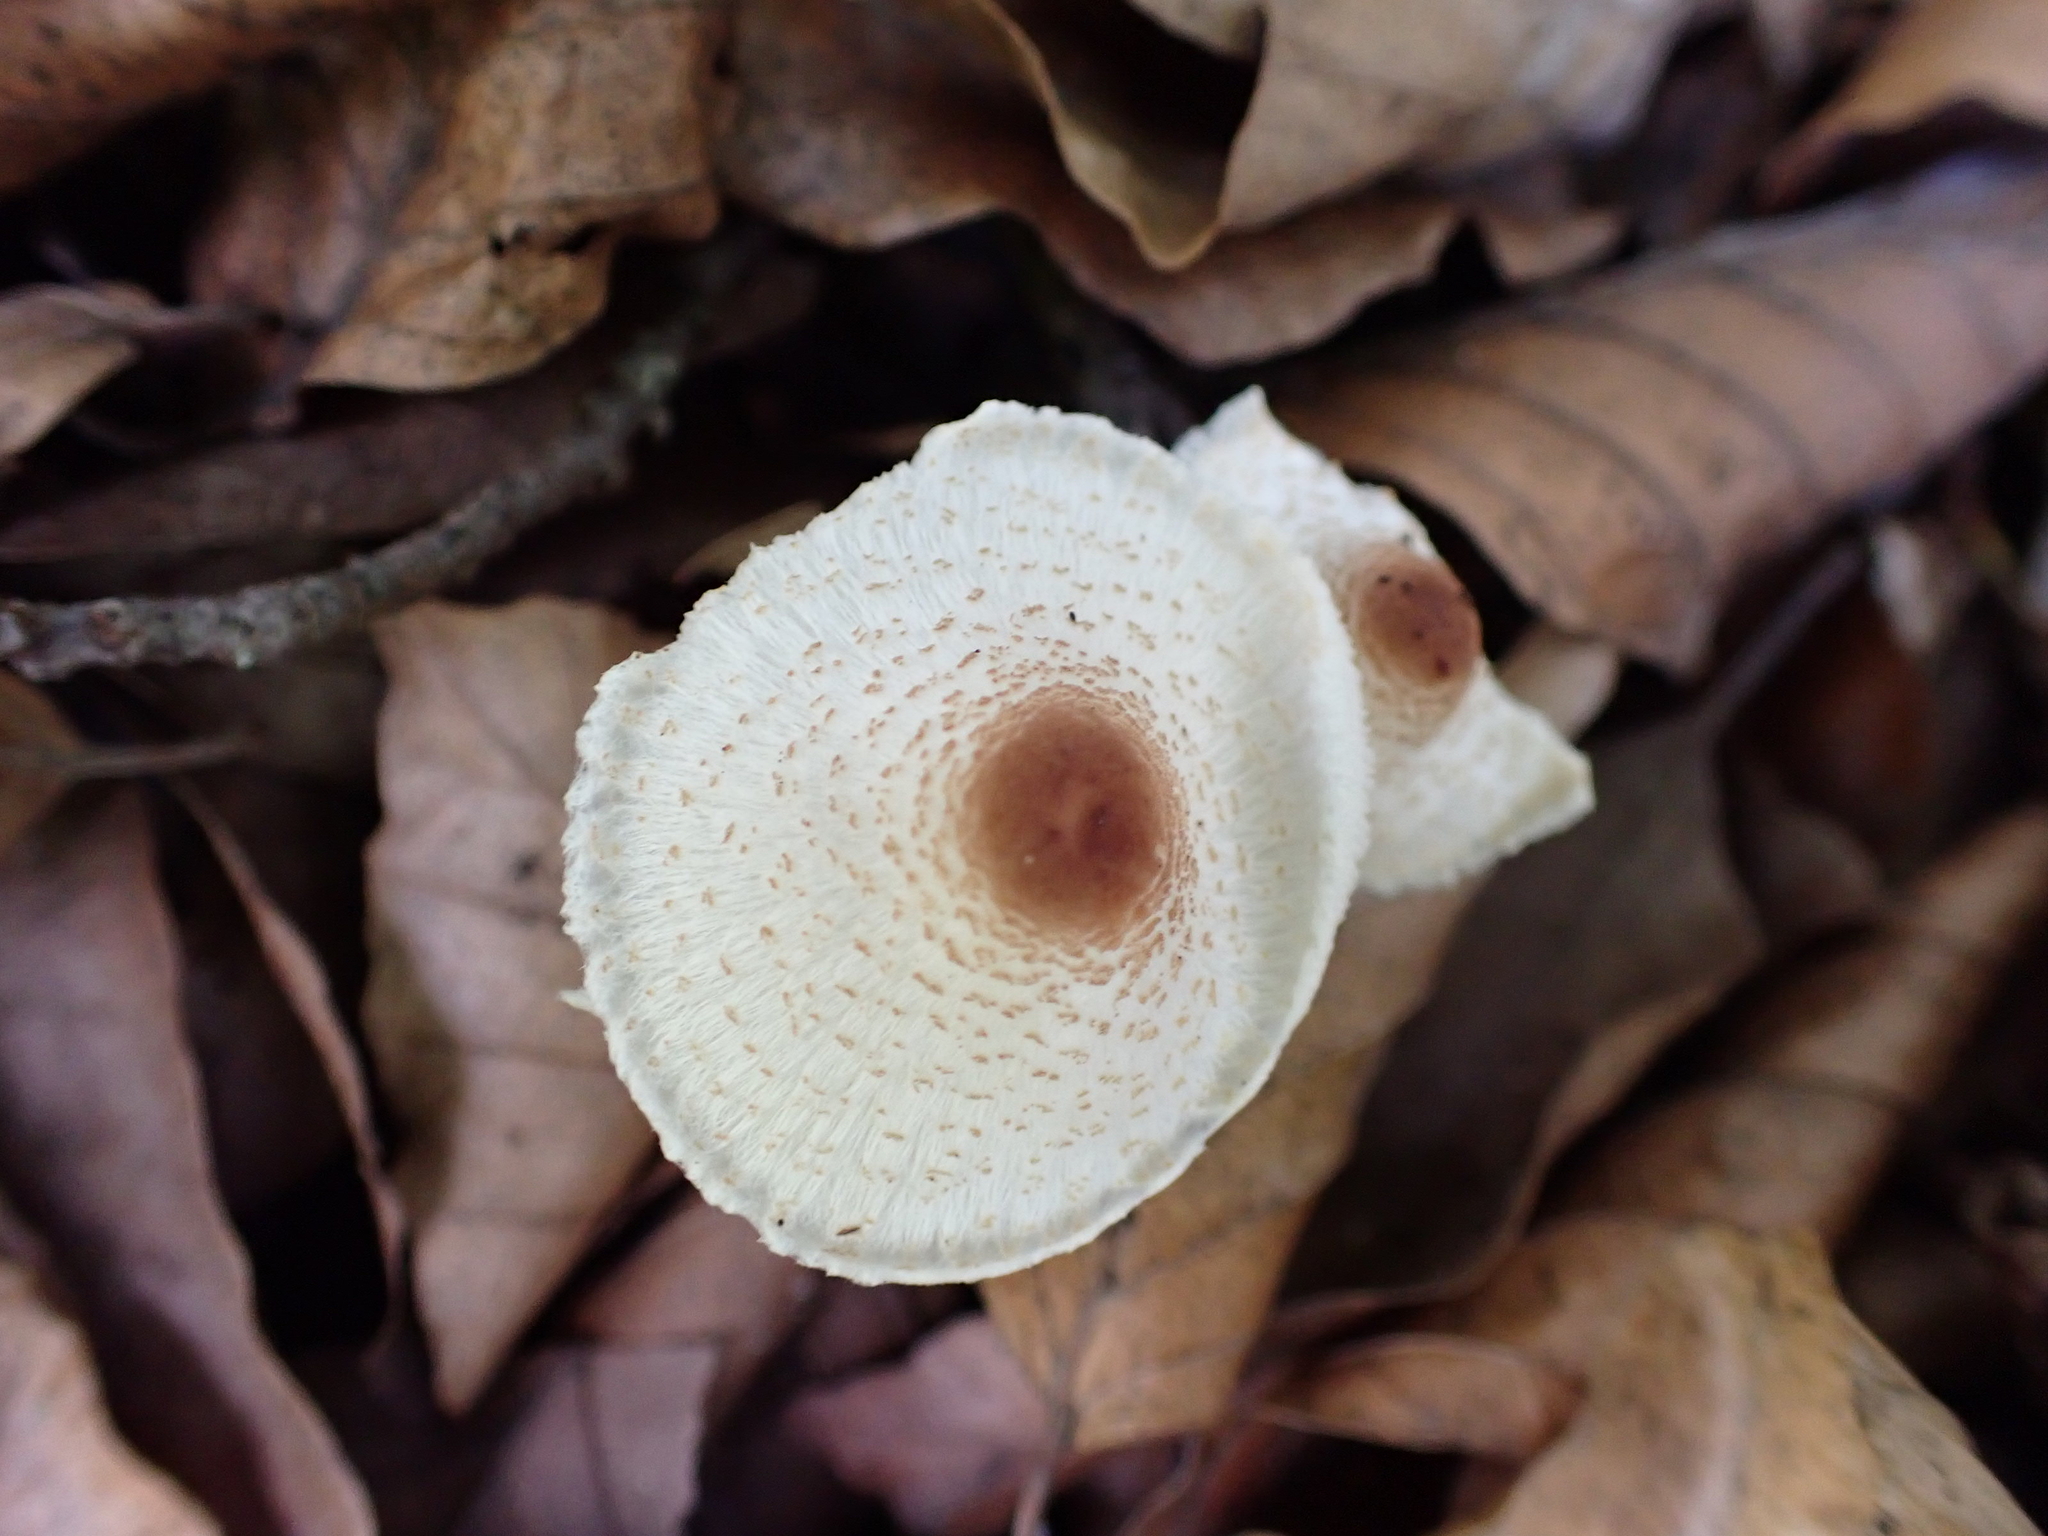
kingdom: Fungi
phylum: Basidiomycota
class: Agaricomycetes
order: Agaricales
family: Agaricaceae
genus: Lepiota
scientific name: Lepiota cristata
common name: Stinking dapperling
